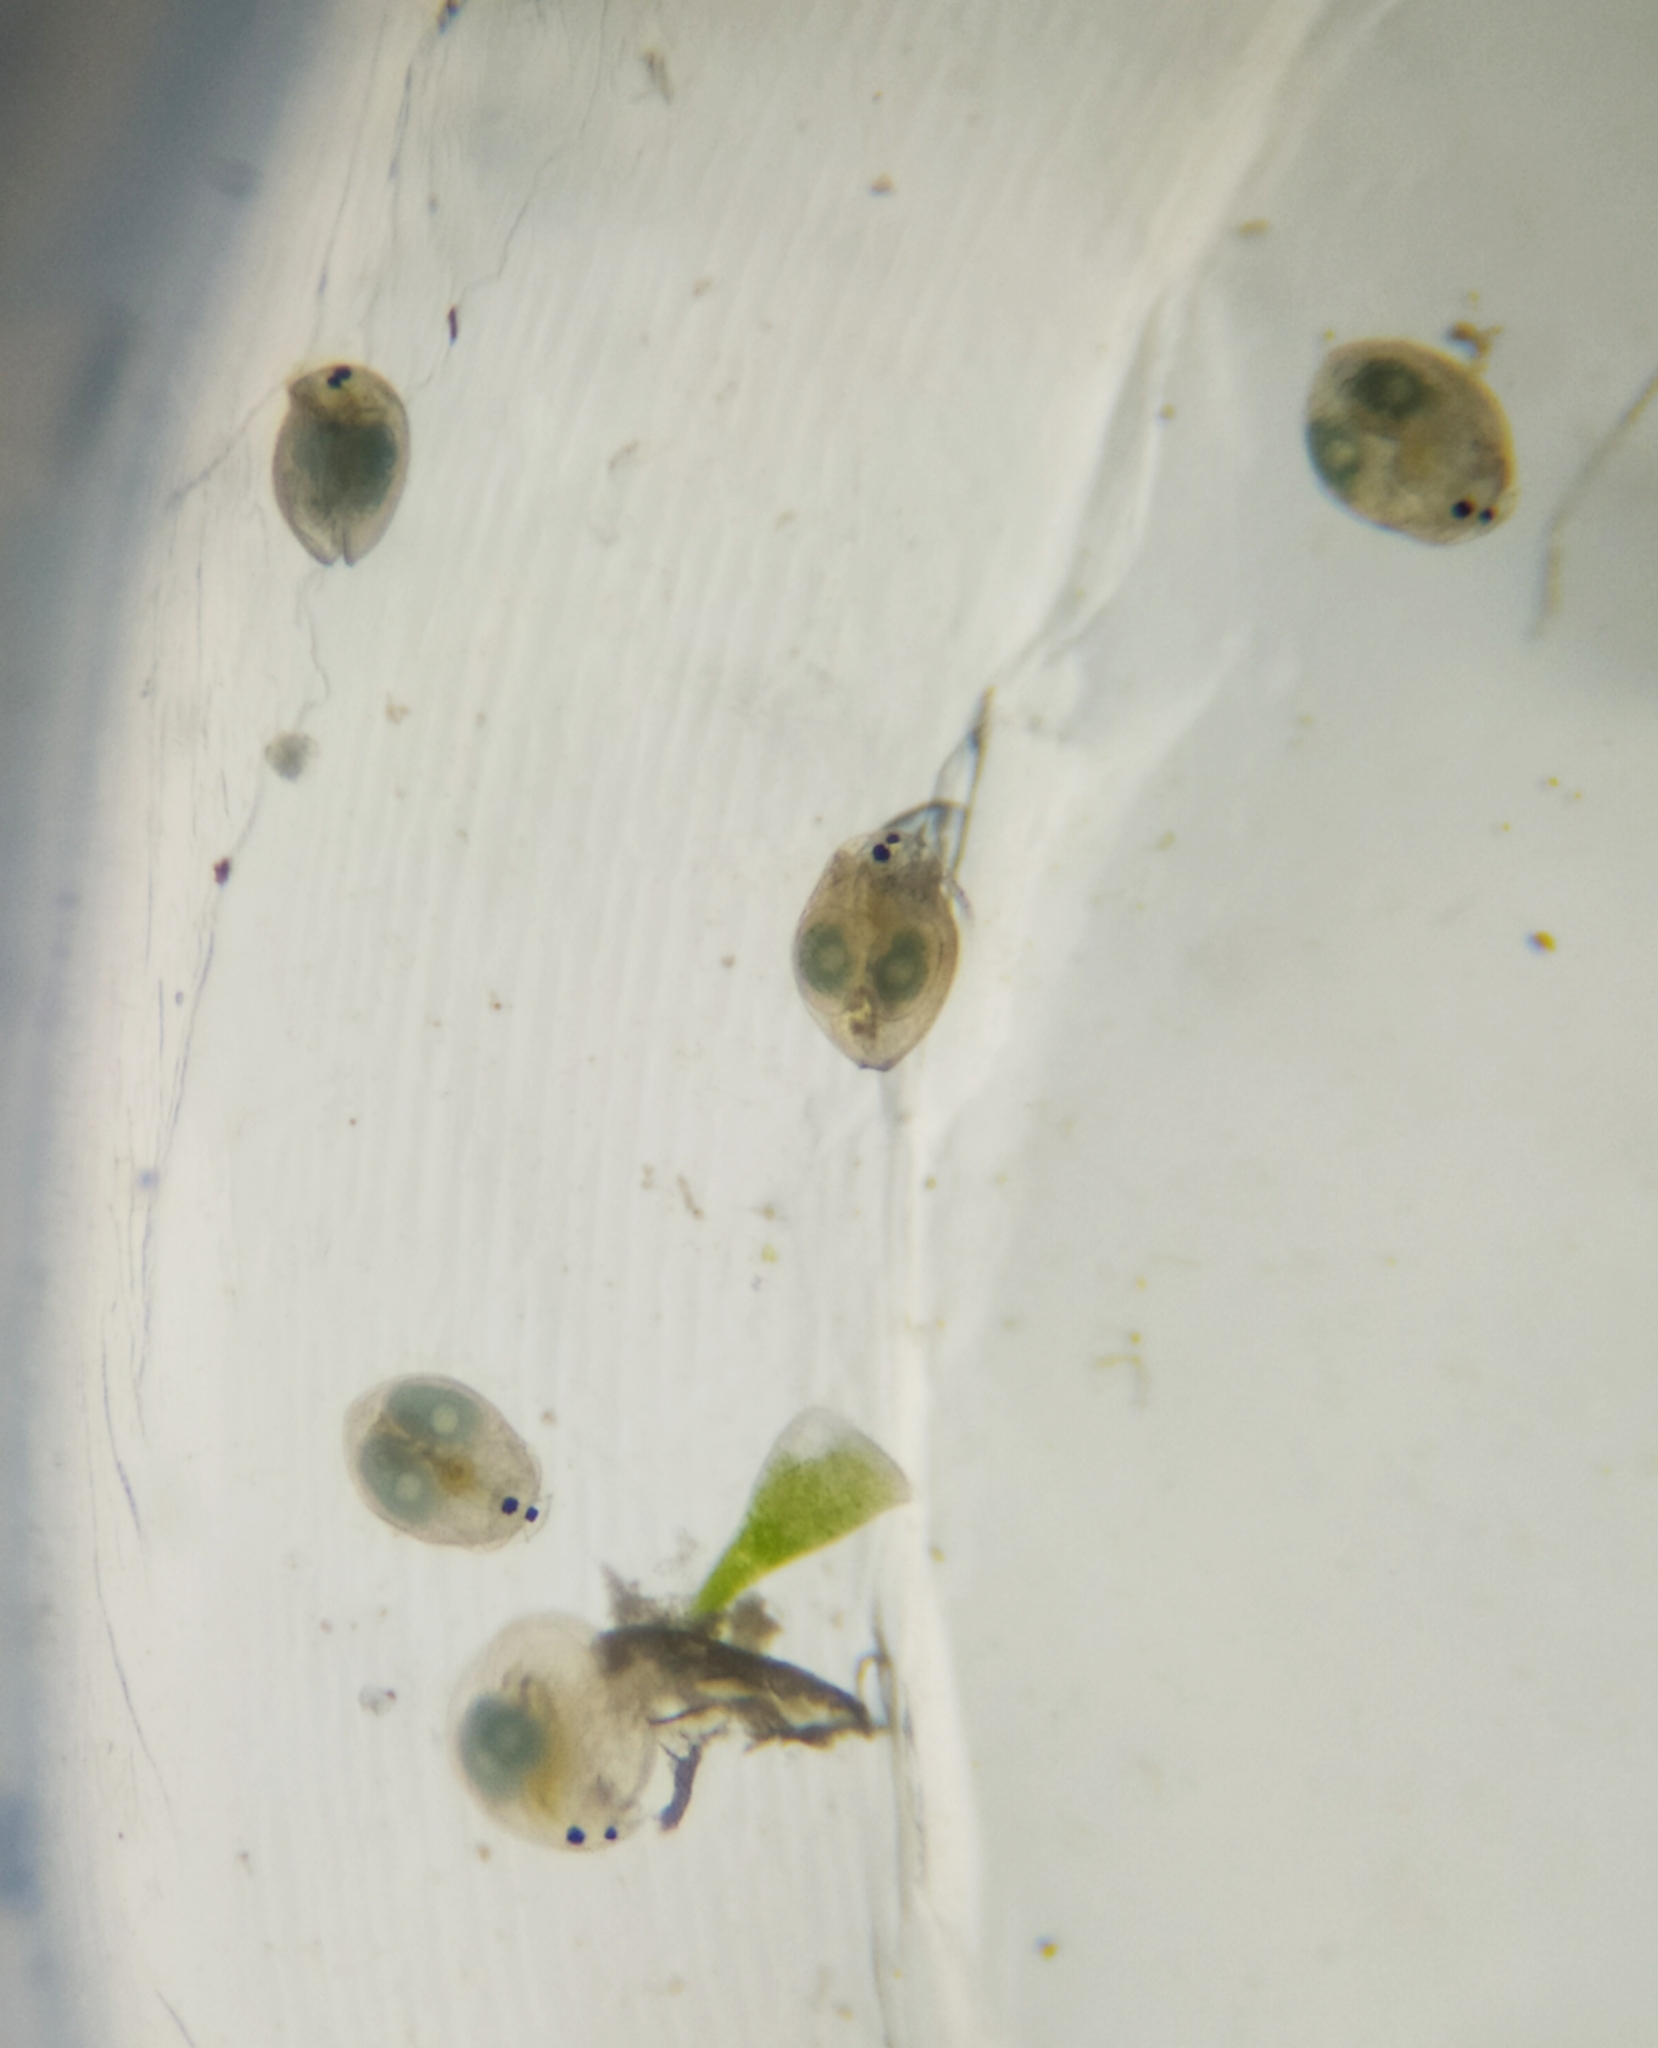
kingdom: Animalia
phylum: Arthropoda
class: Branchiopoda
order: Diplostraca
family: Chydoridae
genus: Chydorus
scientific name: Chydorus sphaericus
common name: Water flea
